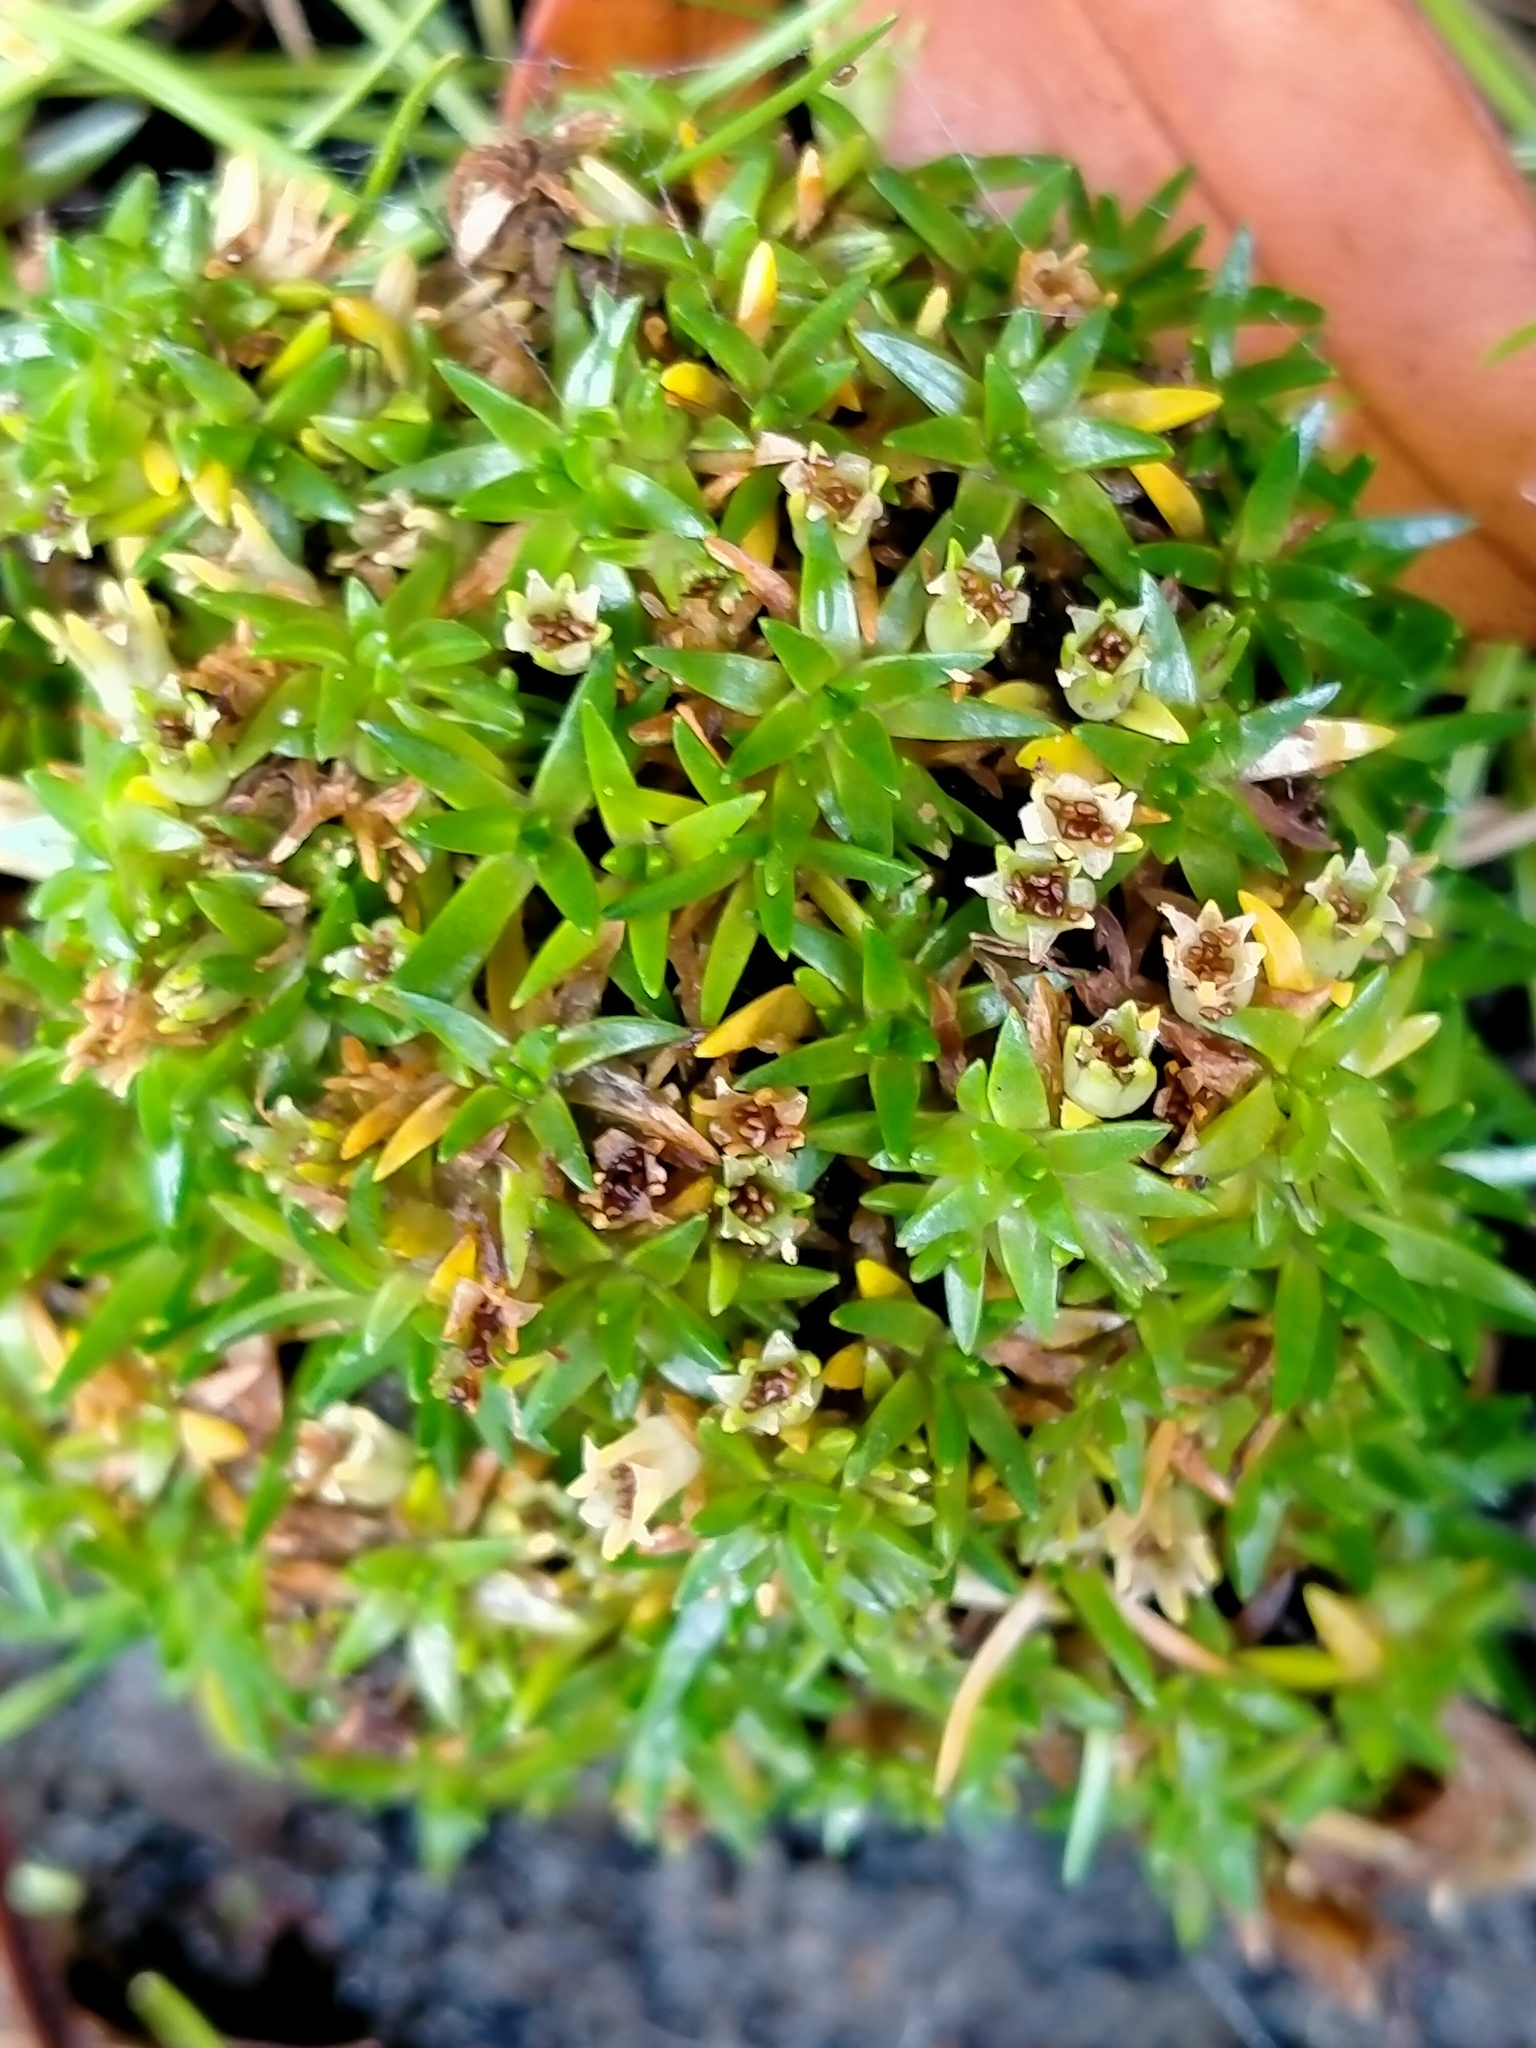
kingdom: Plantae
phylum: Tracheophyta
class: Magnoliopsida
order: Caryophyllales
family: Caryophyllaceae
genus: Colobanthus
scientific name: Colobanthus muscoides
